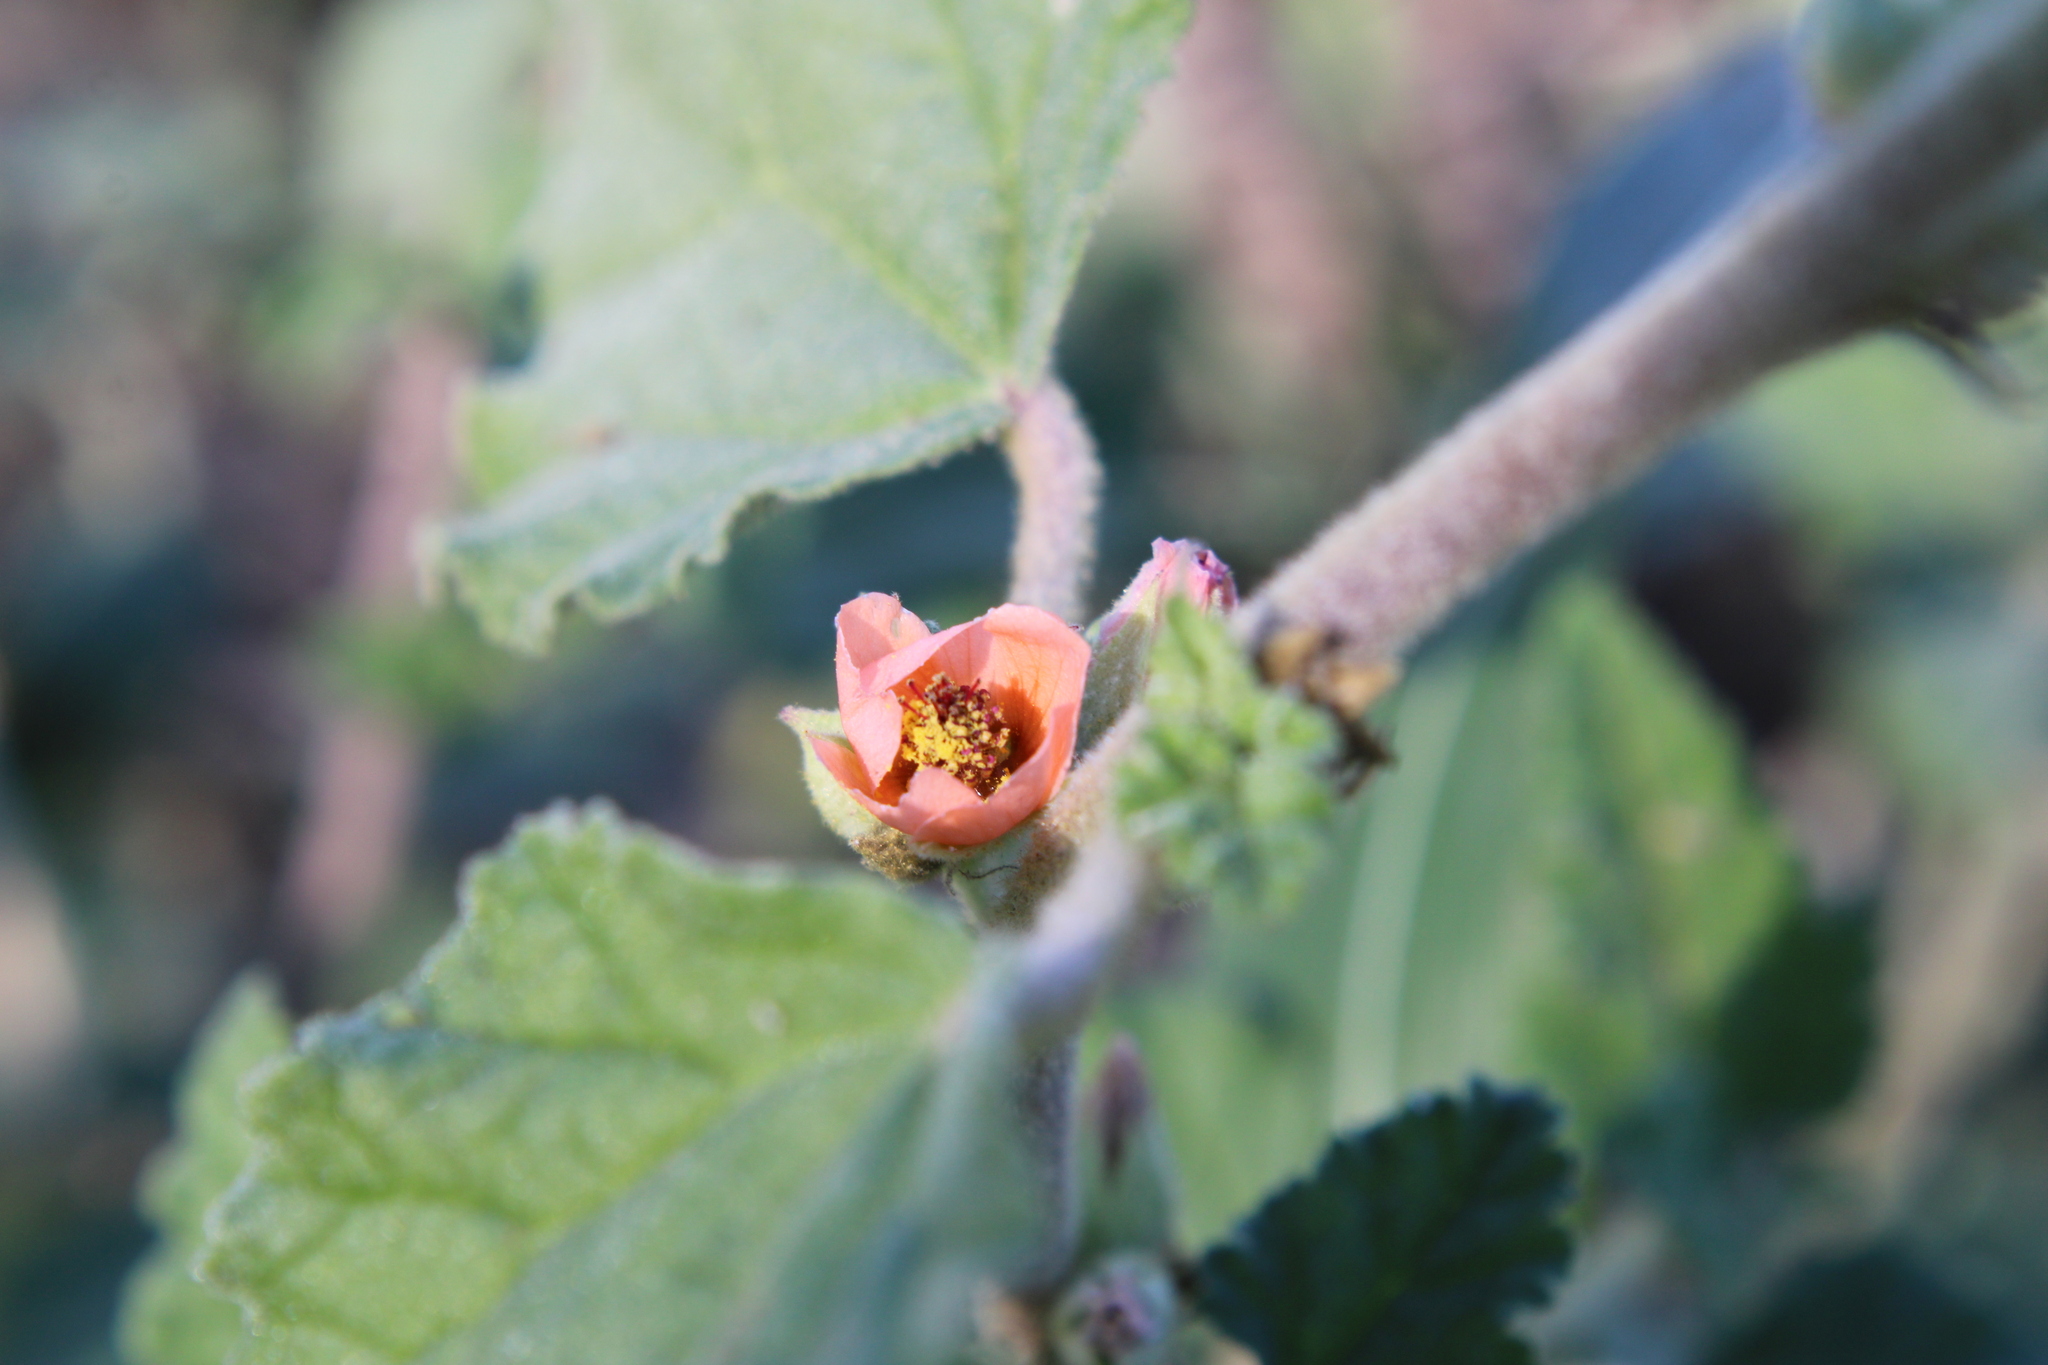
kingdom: Plantae
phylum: Tracheophyta
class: Magnoliopsida
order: Malvales
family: Malvaceae
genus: Sphaeralcea
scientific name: Sphaeralcea bonariensis
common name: Latin globemallow
